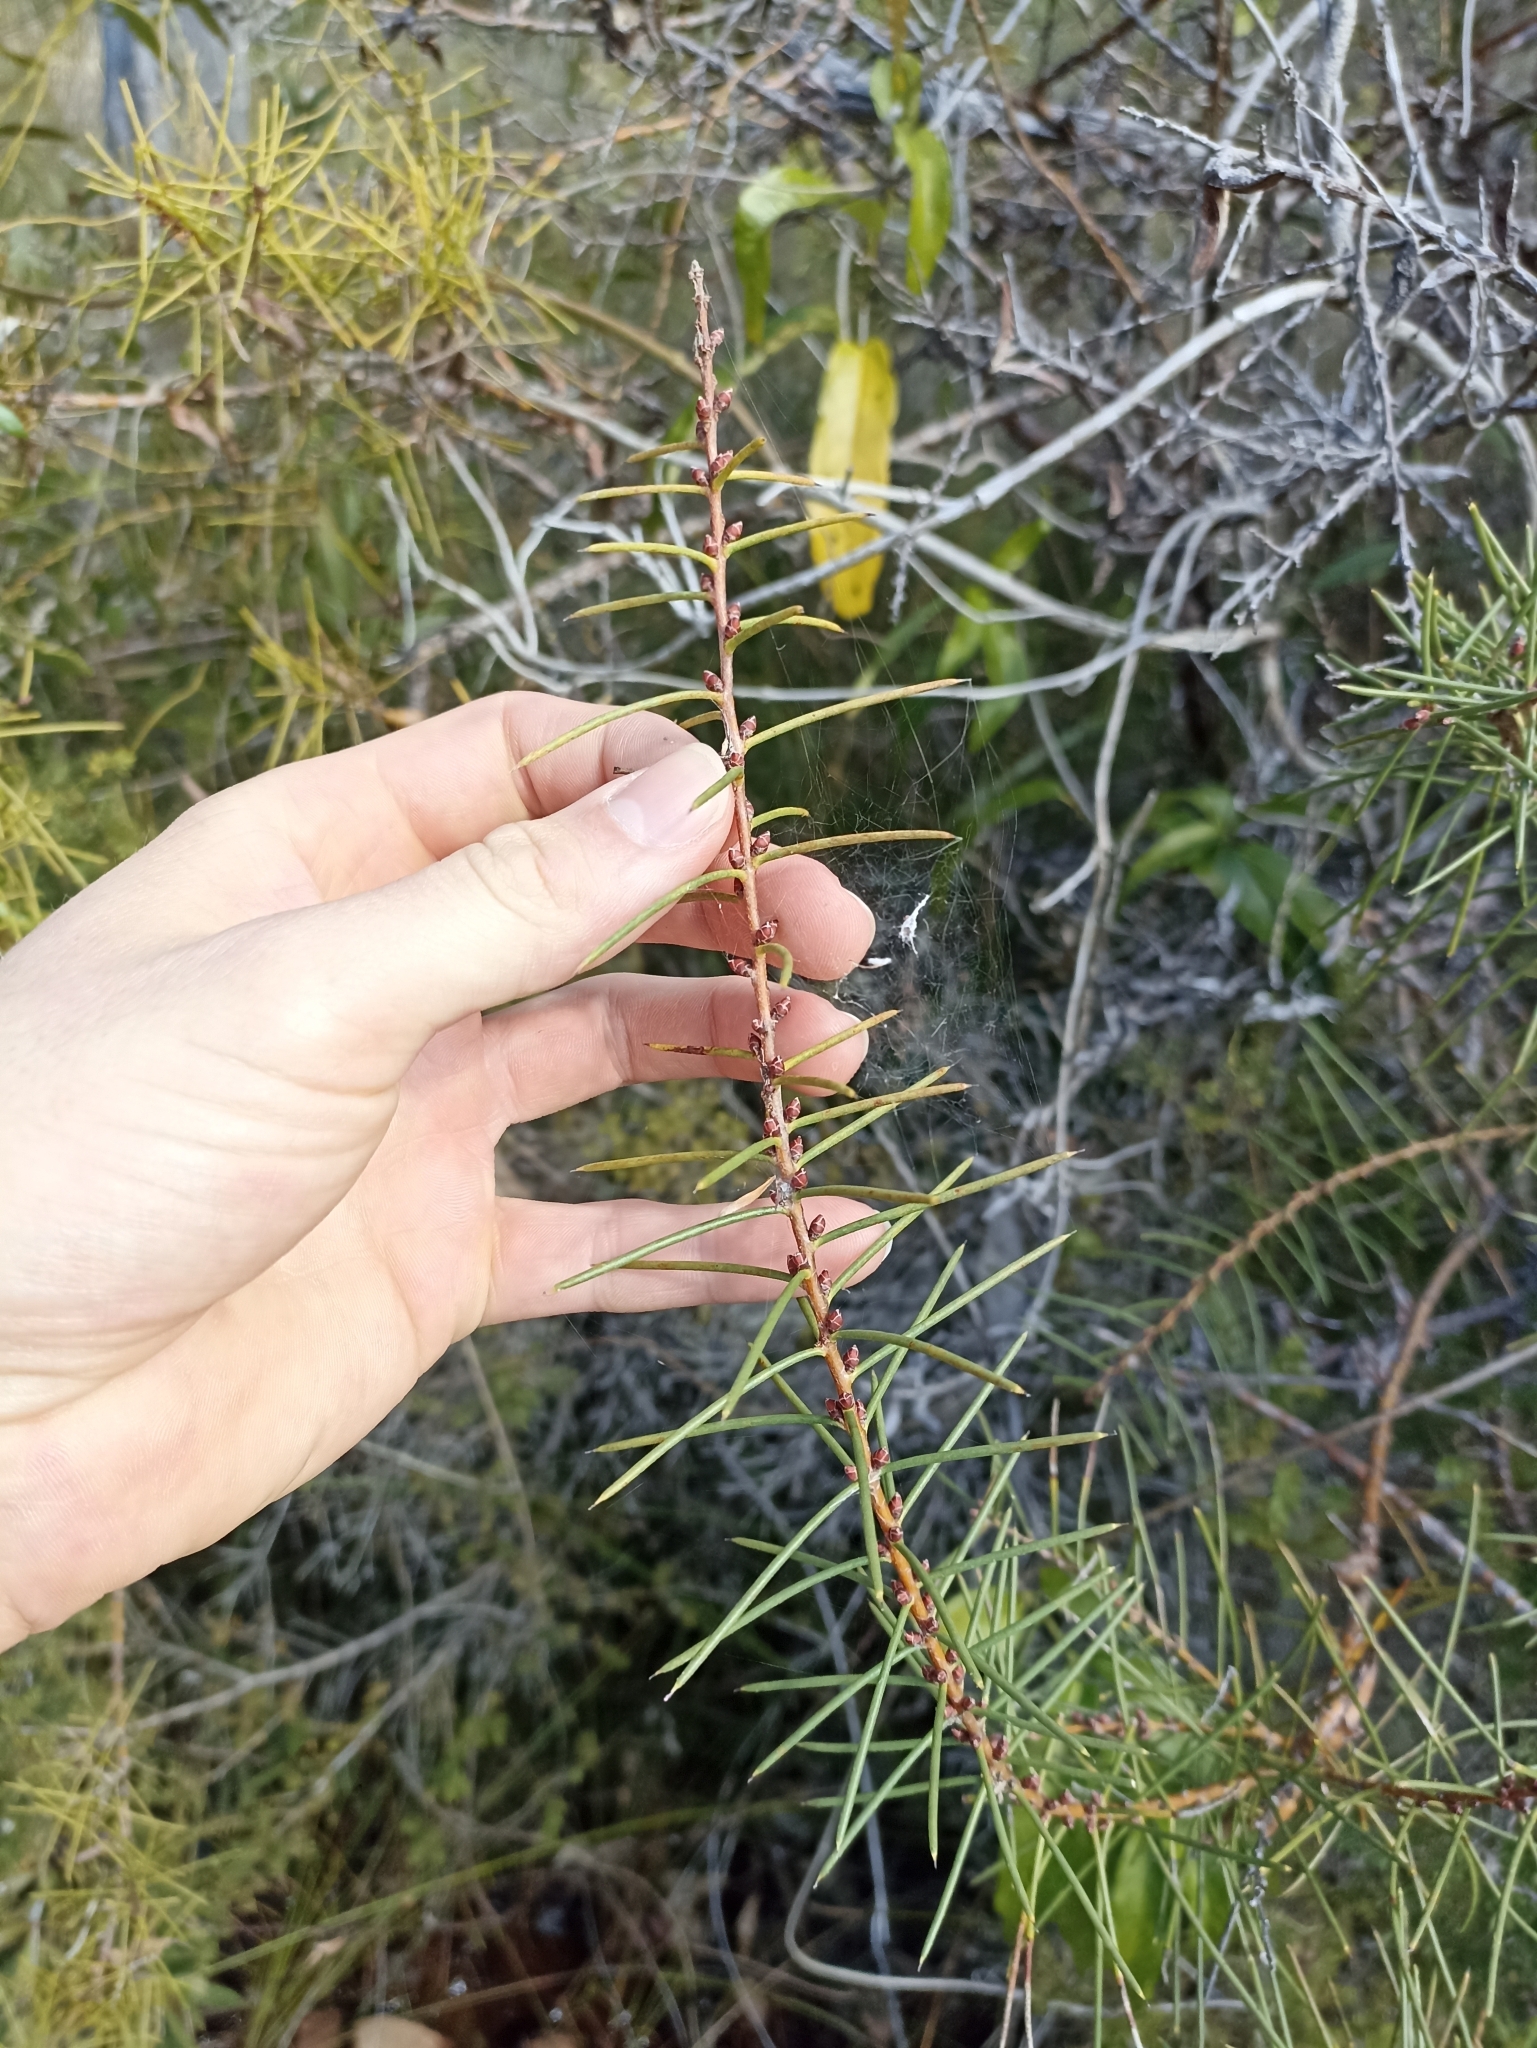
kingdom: Plantae
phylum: Tracheophyta
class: Magnoliopsida
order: Proteales
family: Proteaceae
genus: Hakea
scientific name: Hakea teretifolia
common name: Dagger hakea
